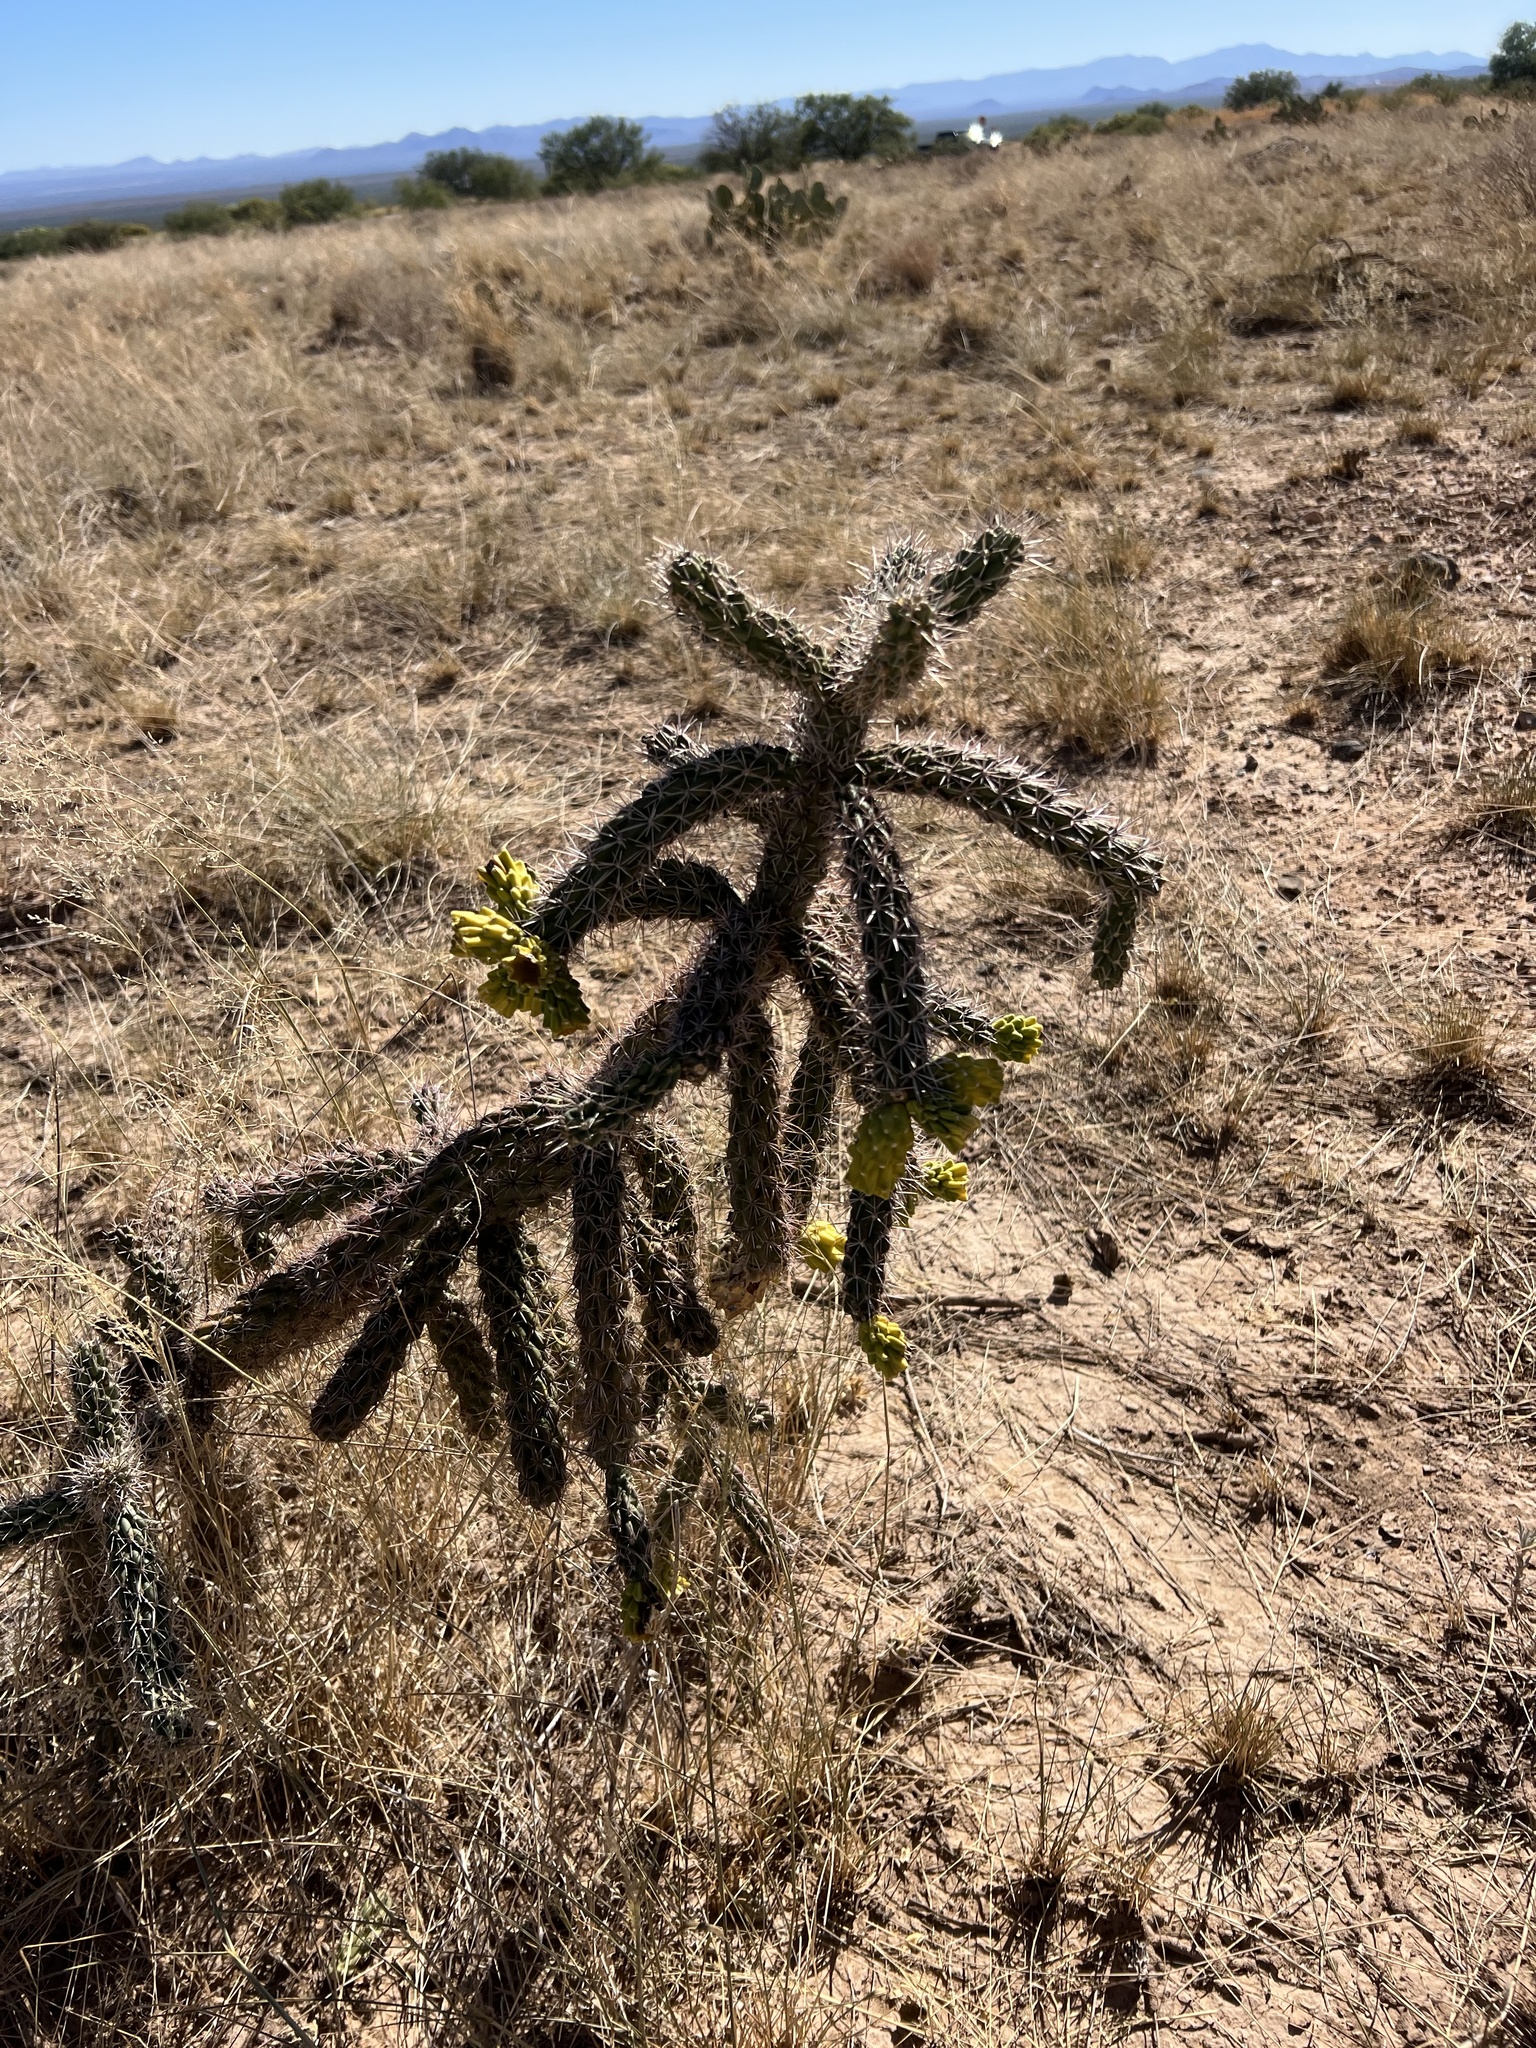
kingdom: Plantae
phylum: Tracheophyta
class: Magnoliopsida
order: Caryophyllales
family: Cactaceae
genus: Cylindropuntia
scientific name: Cylindropuntia imbricata
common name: Candelabrum cactus
